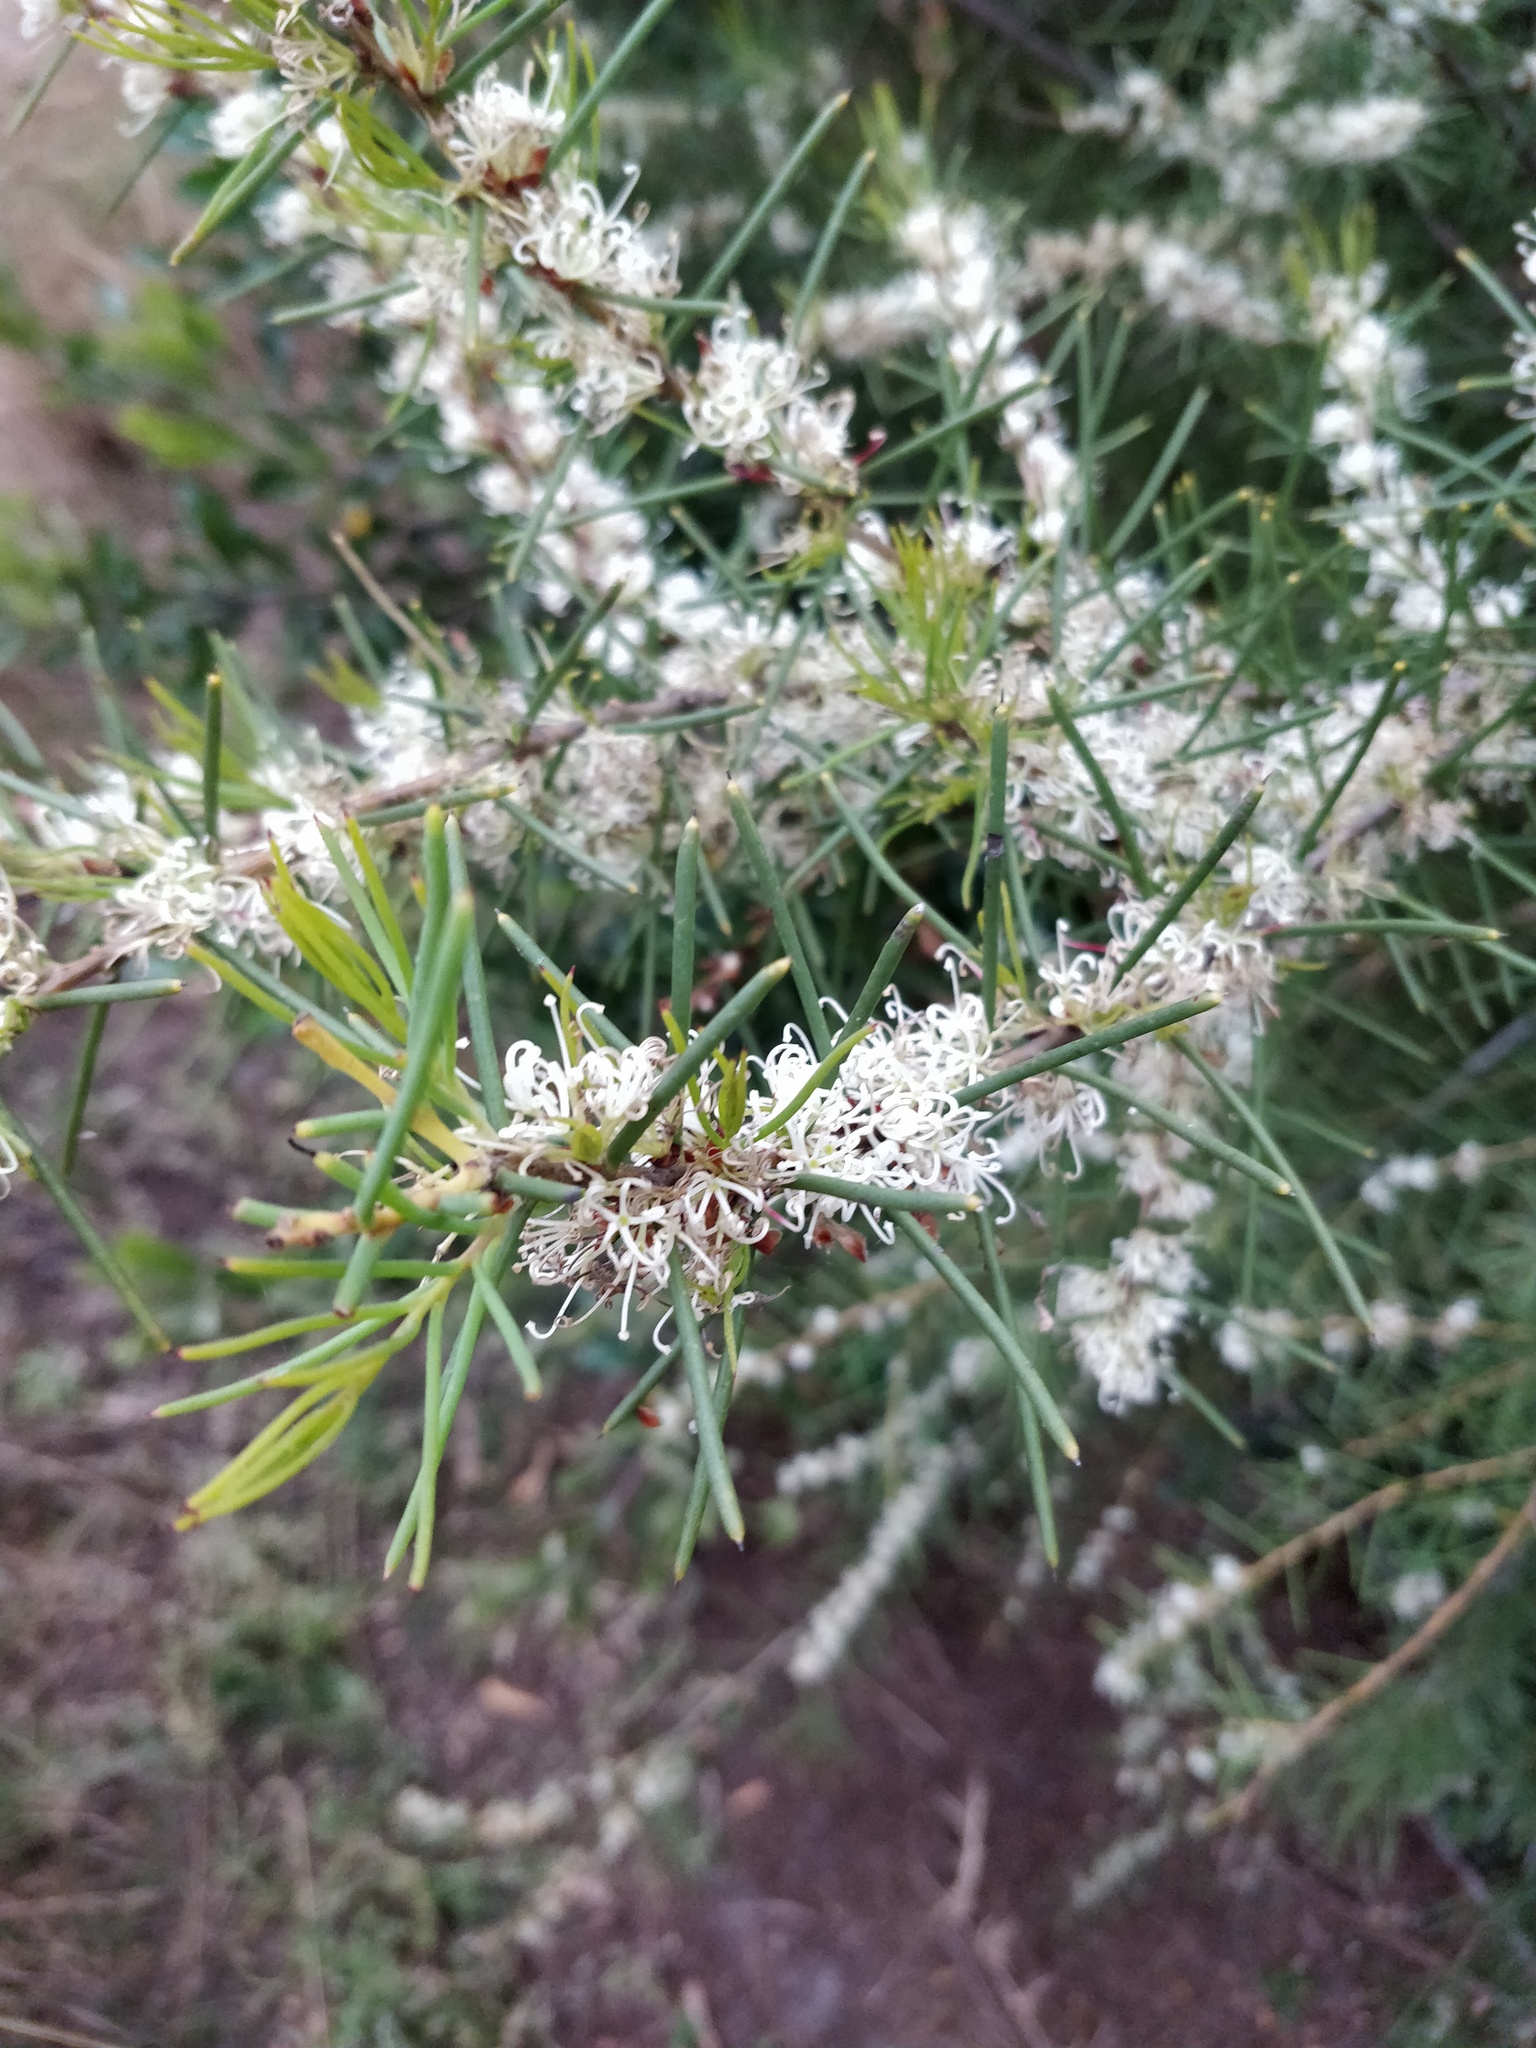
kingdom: Plantae
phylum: Tracheophyta
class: Magnoliopsida
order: Proteales
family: Proteaceae
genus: Hakea
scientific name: Hakea teretifolia
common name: Dagger hakea
